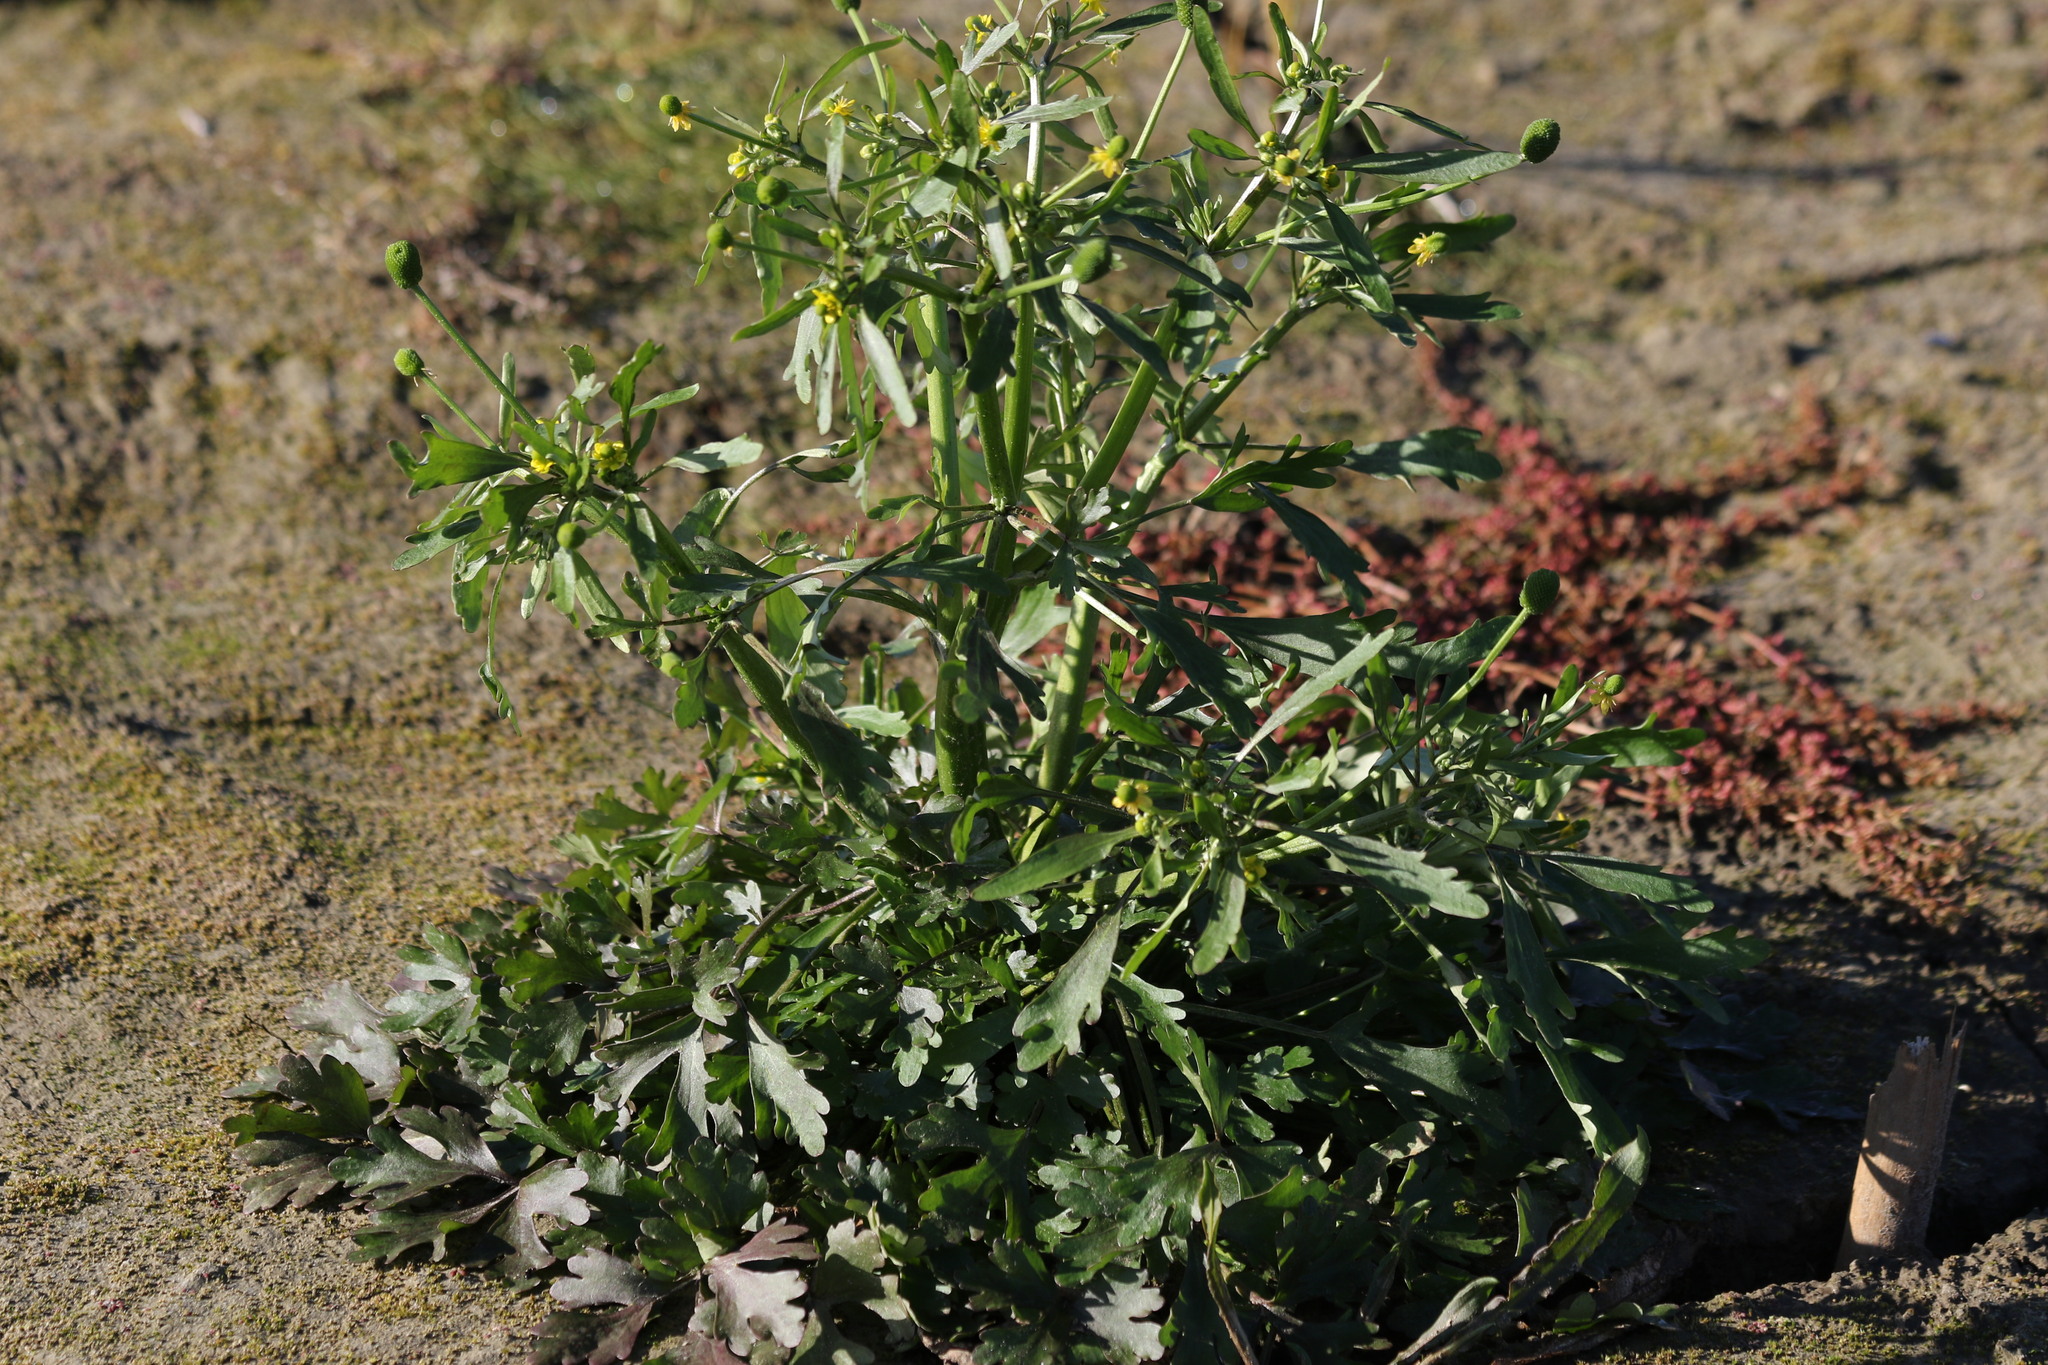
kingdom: Plantae
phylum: Tracheophyta
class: Magnoliopsida
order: Ranunculales
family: Ranunculaceae
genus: Ranunculus
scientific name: Ranunculus sceleratus
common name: Celery-leaved buttercup
